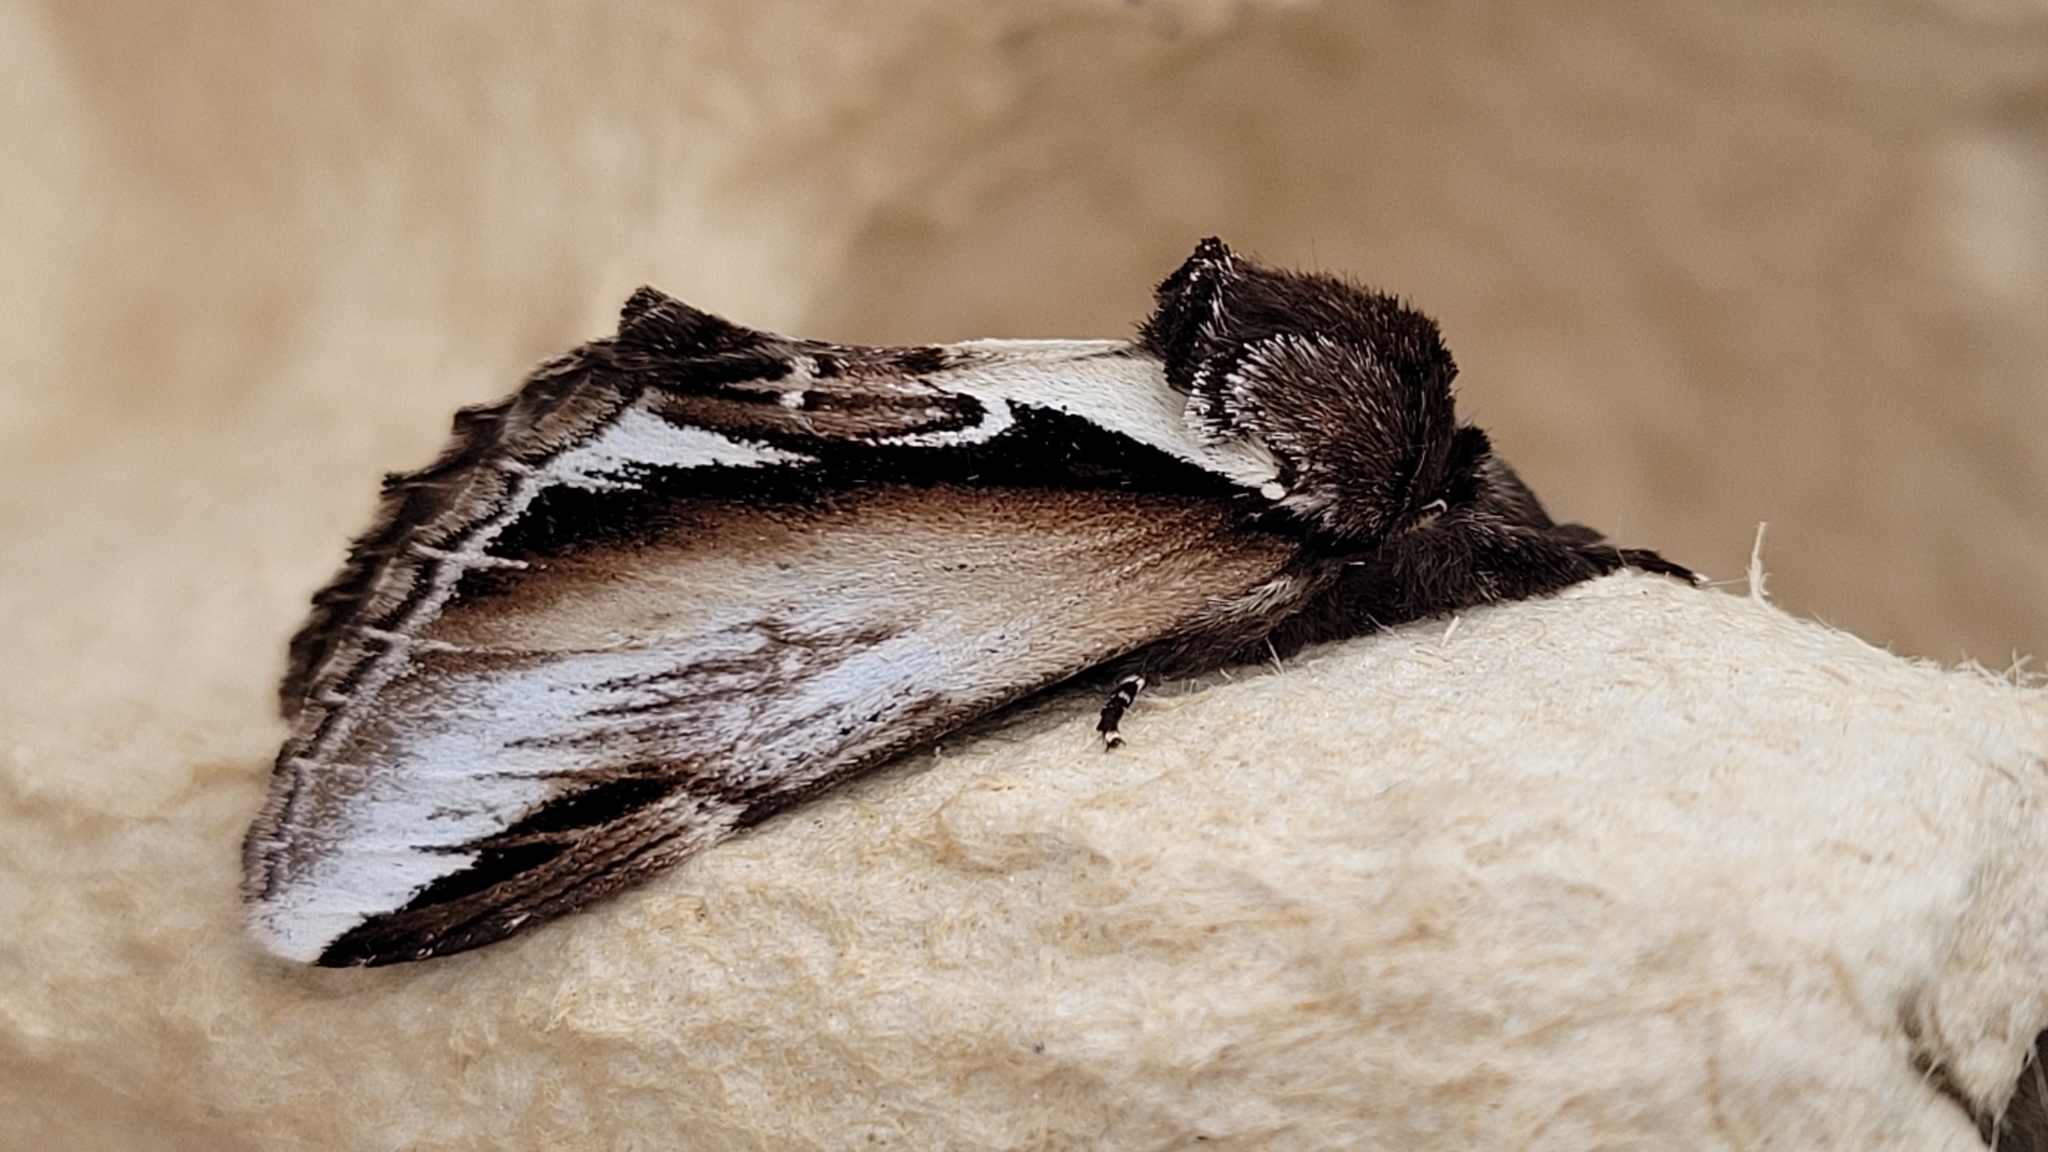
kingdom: Animalia
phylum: Arthropoda
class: Insecta
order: Lepidoptera
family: Notodontidae
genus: Pheosia
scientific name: Pheosia gnoma
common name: Lesser swallow prominent
